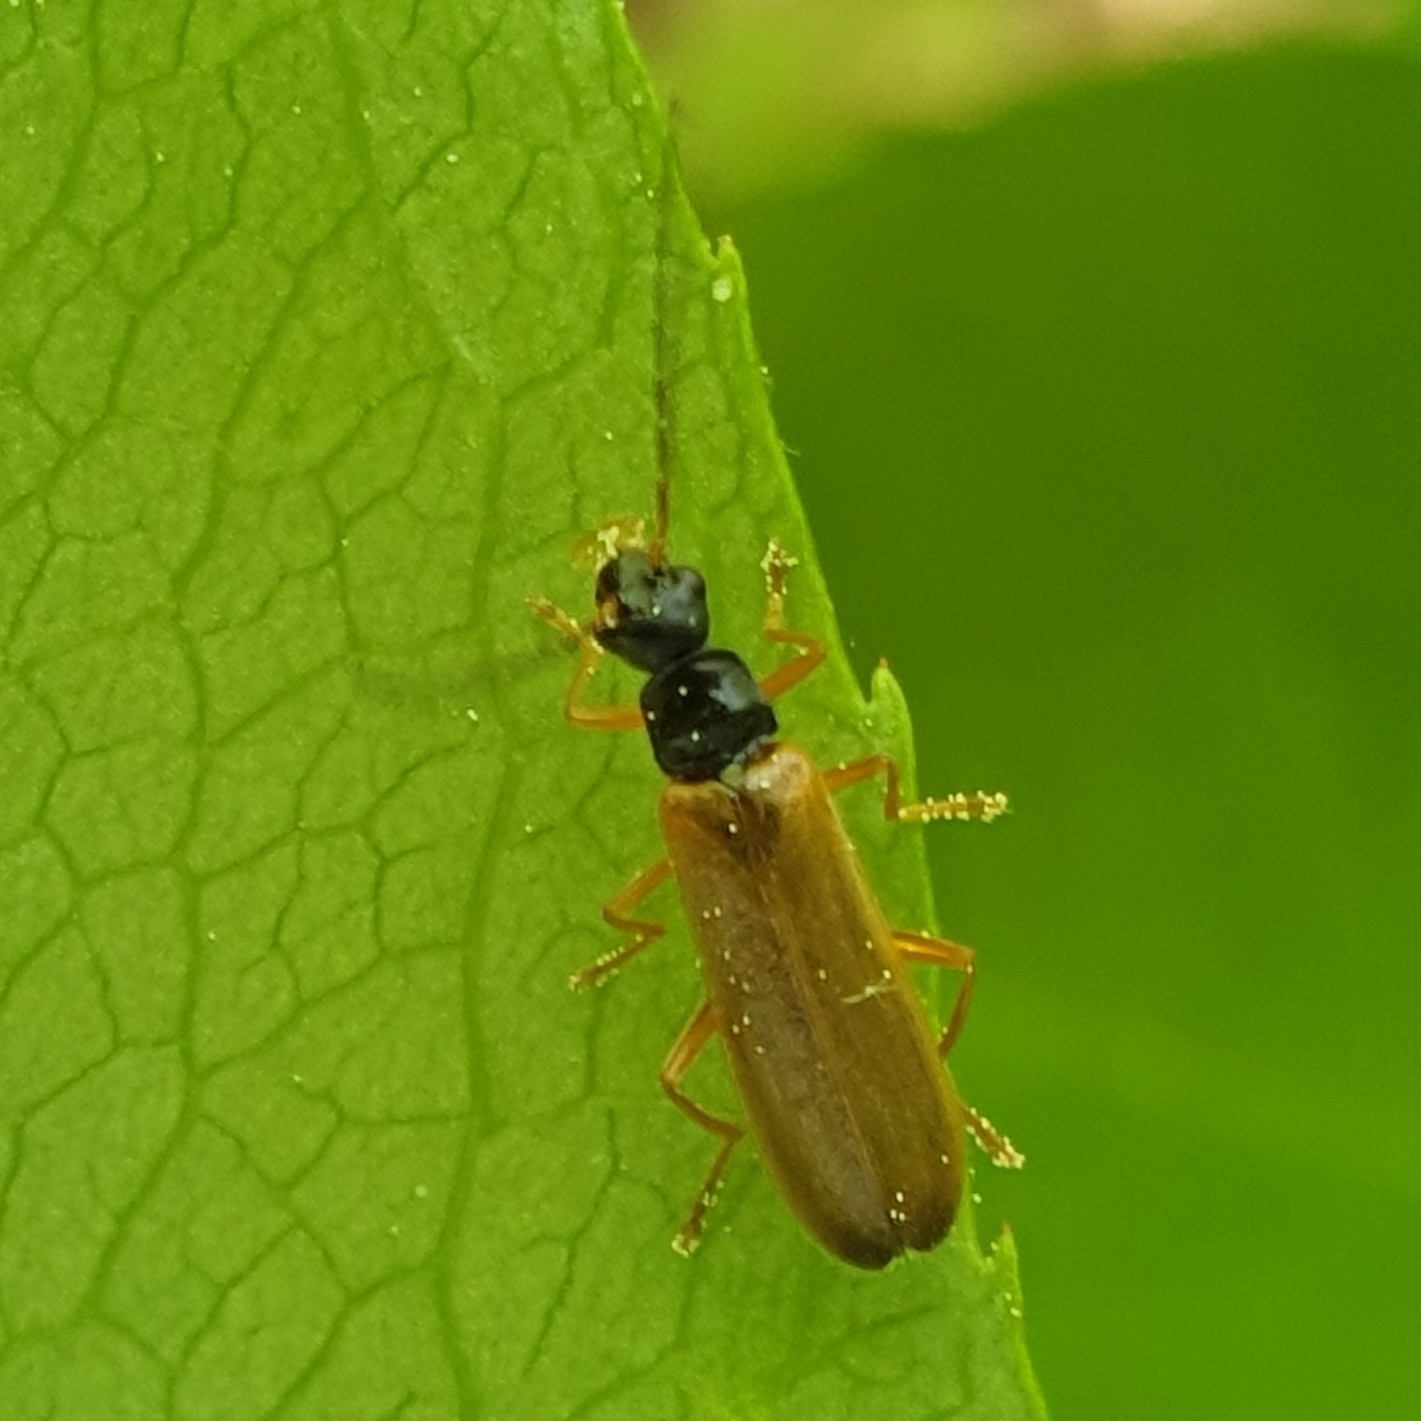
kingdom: Animalia
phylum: Arthropoda
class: Insecta
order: Coleoptera
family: Cantharidae
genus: Rhagonycha
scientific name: Rhagonycha lignosa
